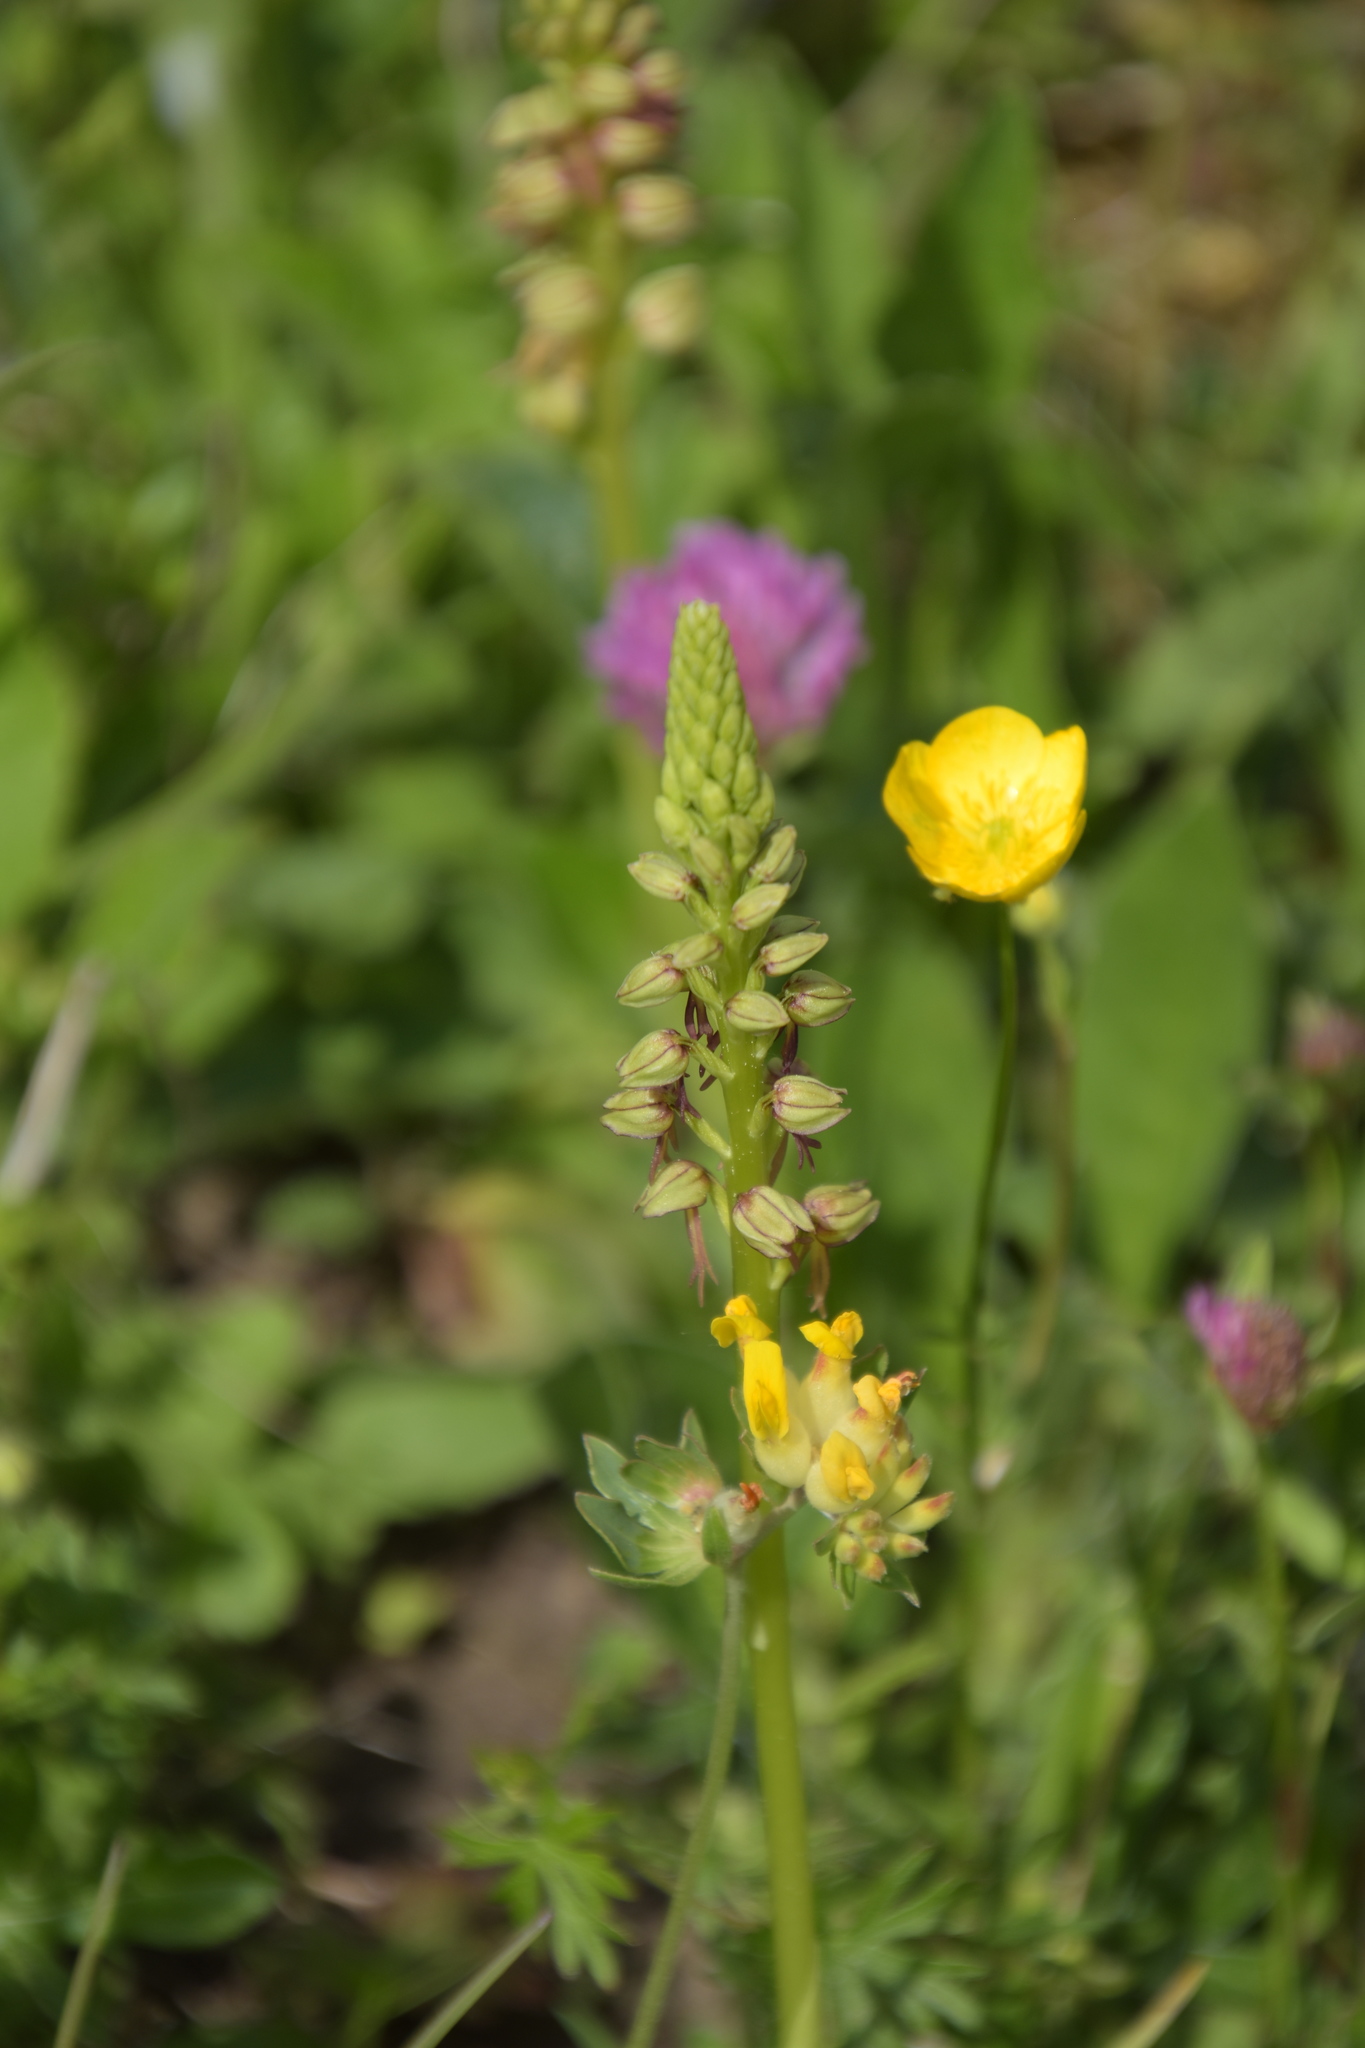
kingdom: Plantae
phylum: Tracheophyta
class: Liliopsida
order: Asparagales
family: Orchidaceae
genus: Orchis
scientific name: Orchis anthropophora
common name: Man orchid
